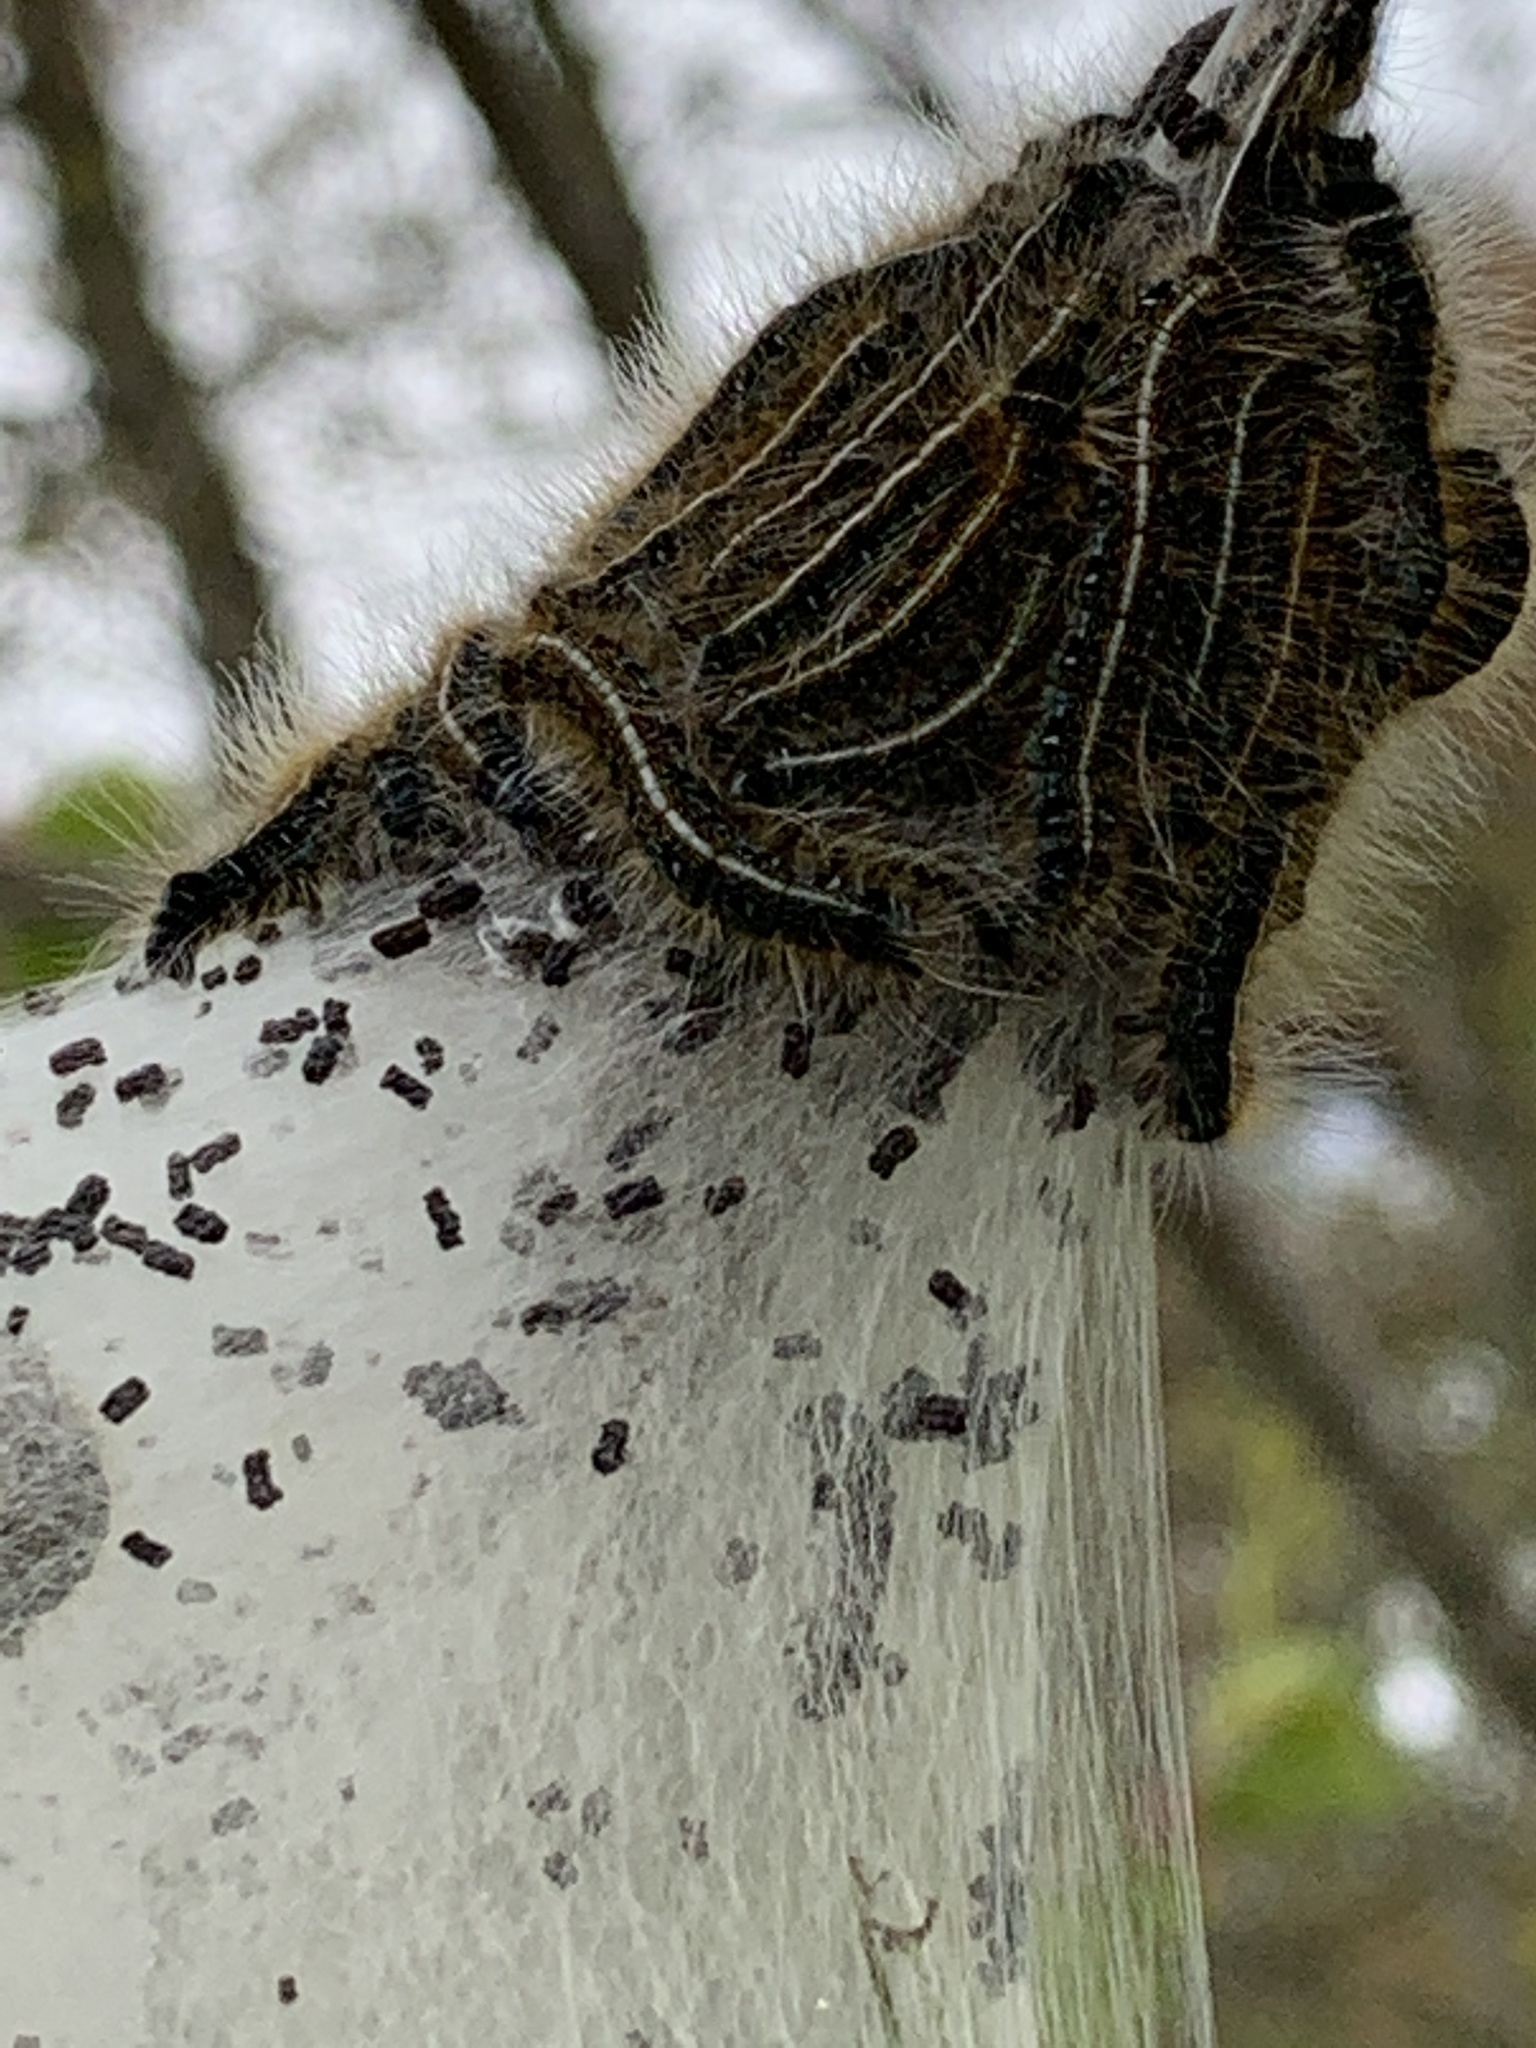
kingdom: Animalia
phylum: Arthropoda
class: Insecta
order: Lepidoptera
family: Lasiocampidae
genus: Malacosoma
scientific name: Malacosoma americana
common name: Eastern tent caterpillar moth
